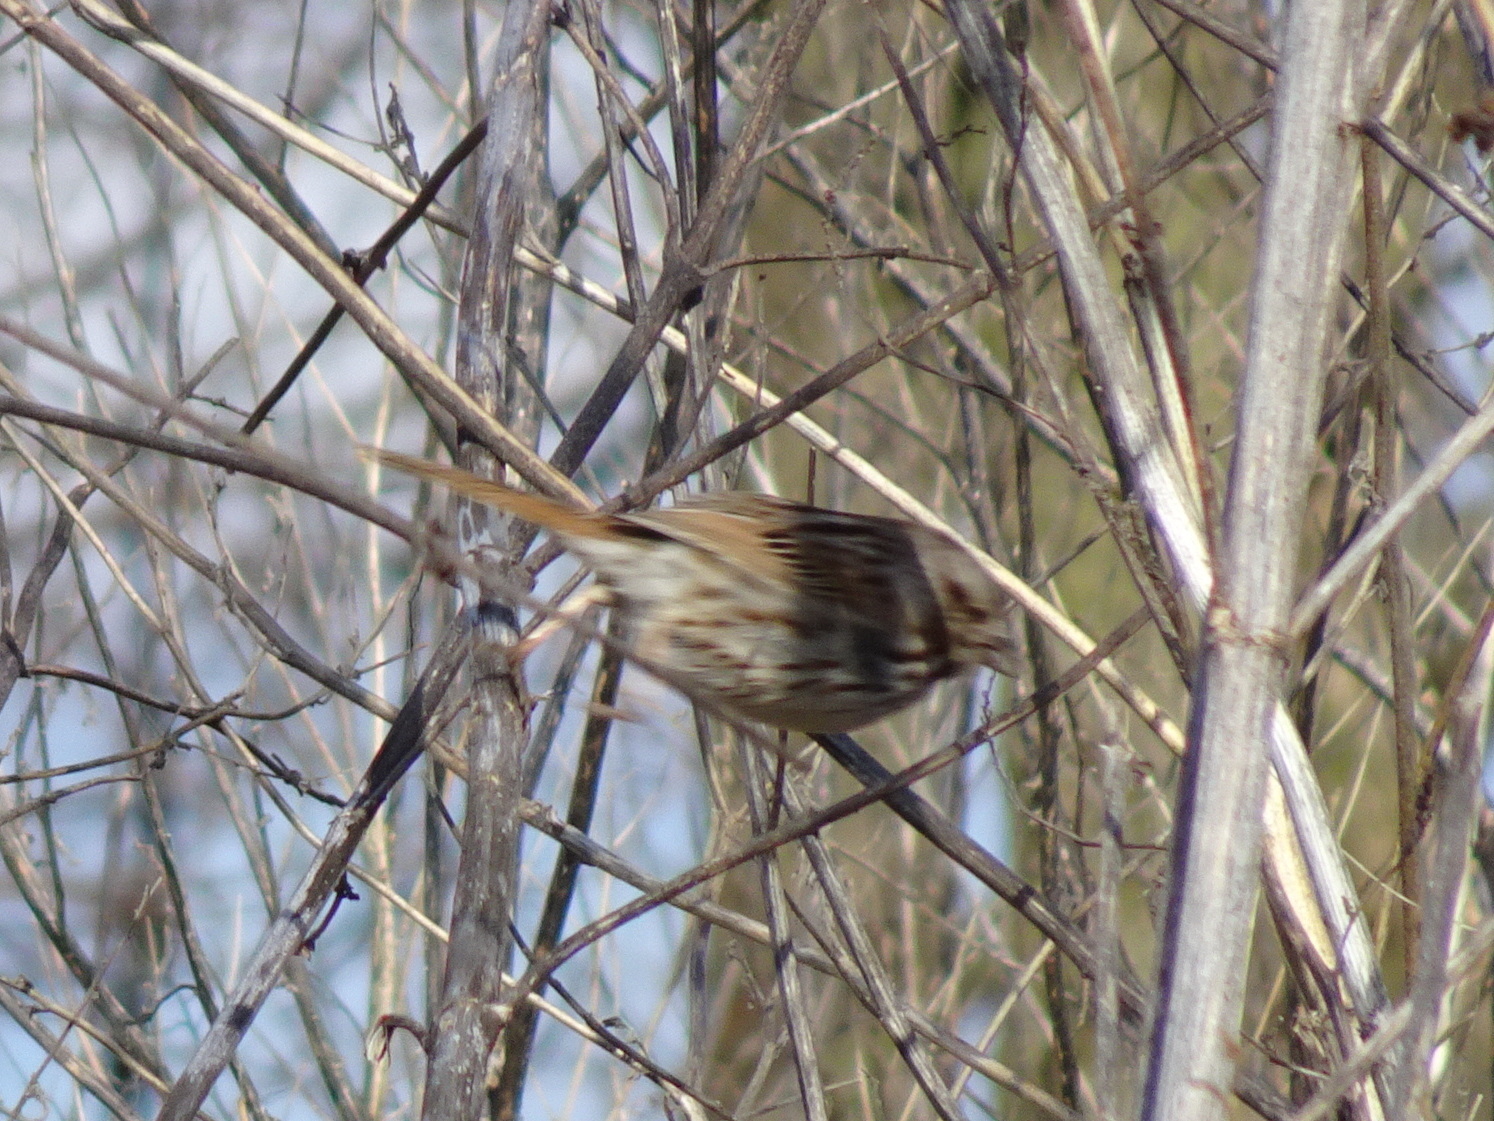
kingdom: Animalia
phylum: Chordata
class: Aves
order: Passeriformes
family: Passerellidae
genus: Melospiza
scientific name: Melospiza melodia
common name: Song sparrow
